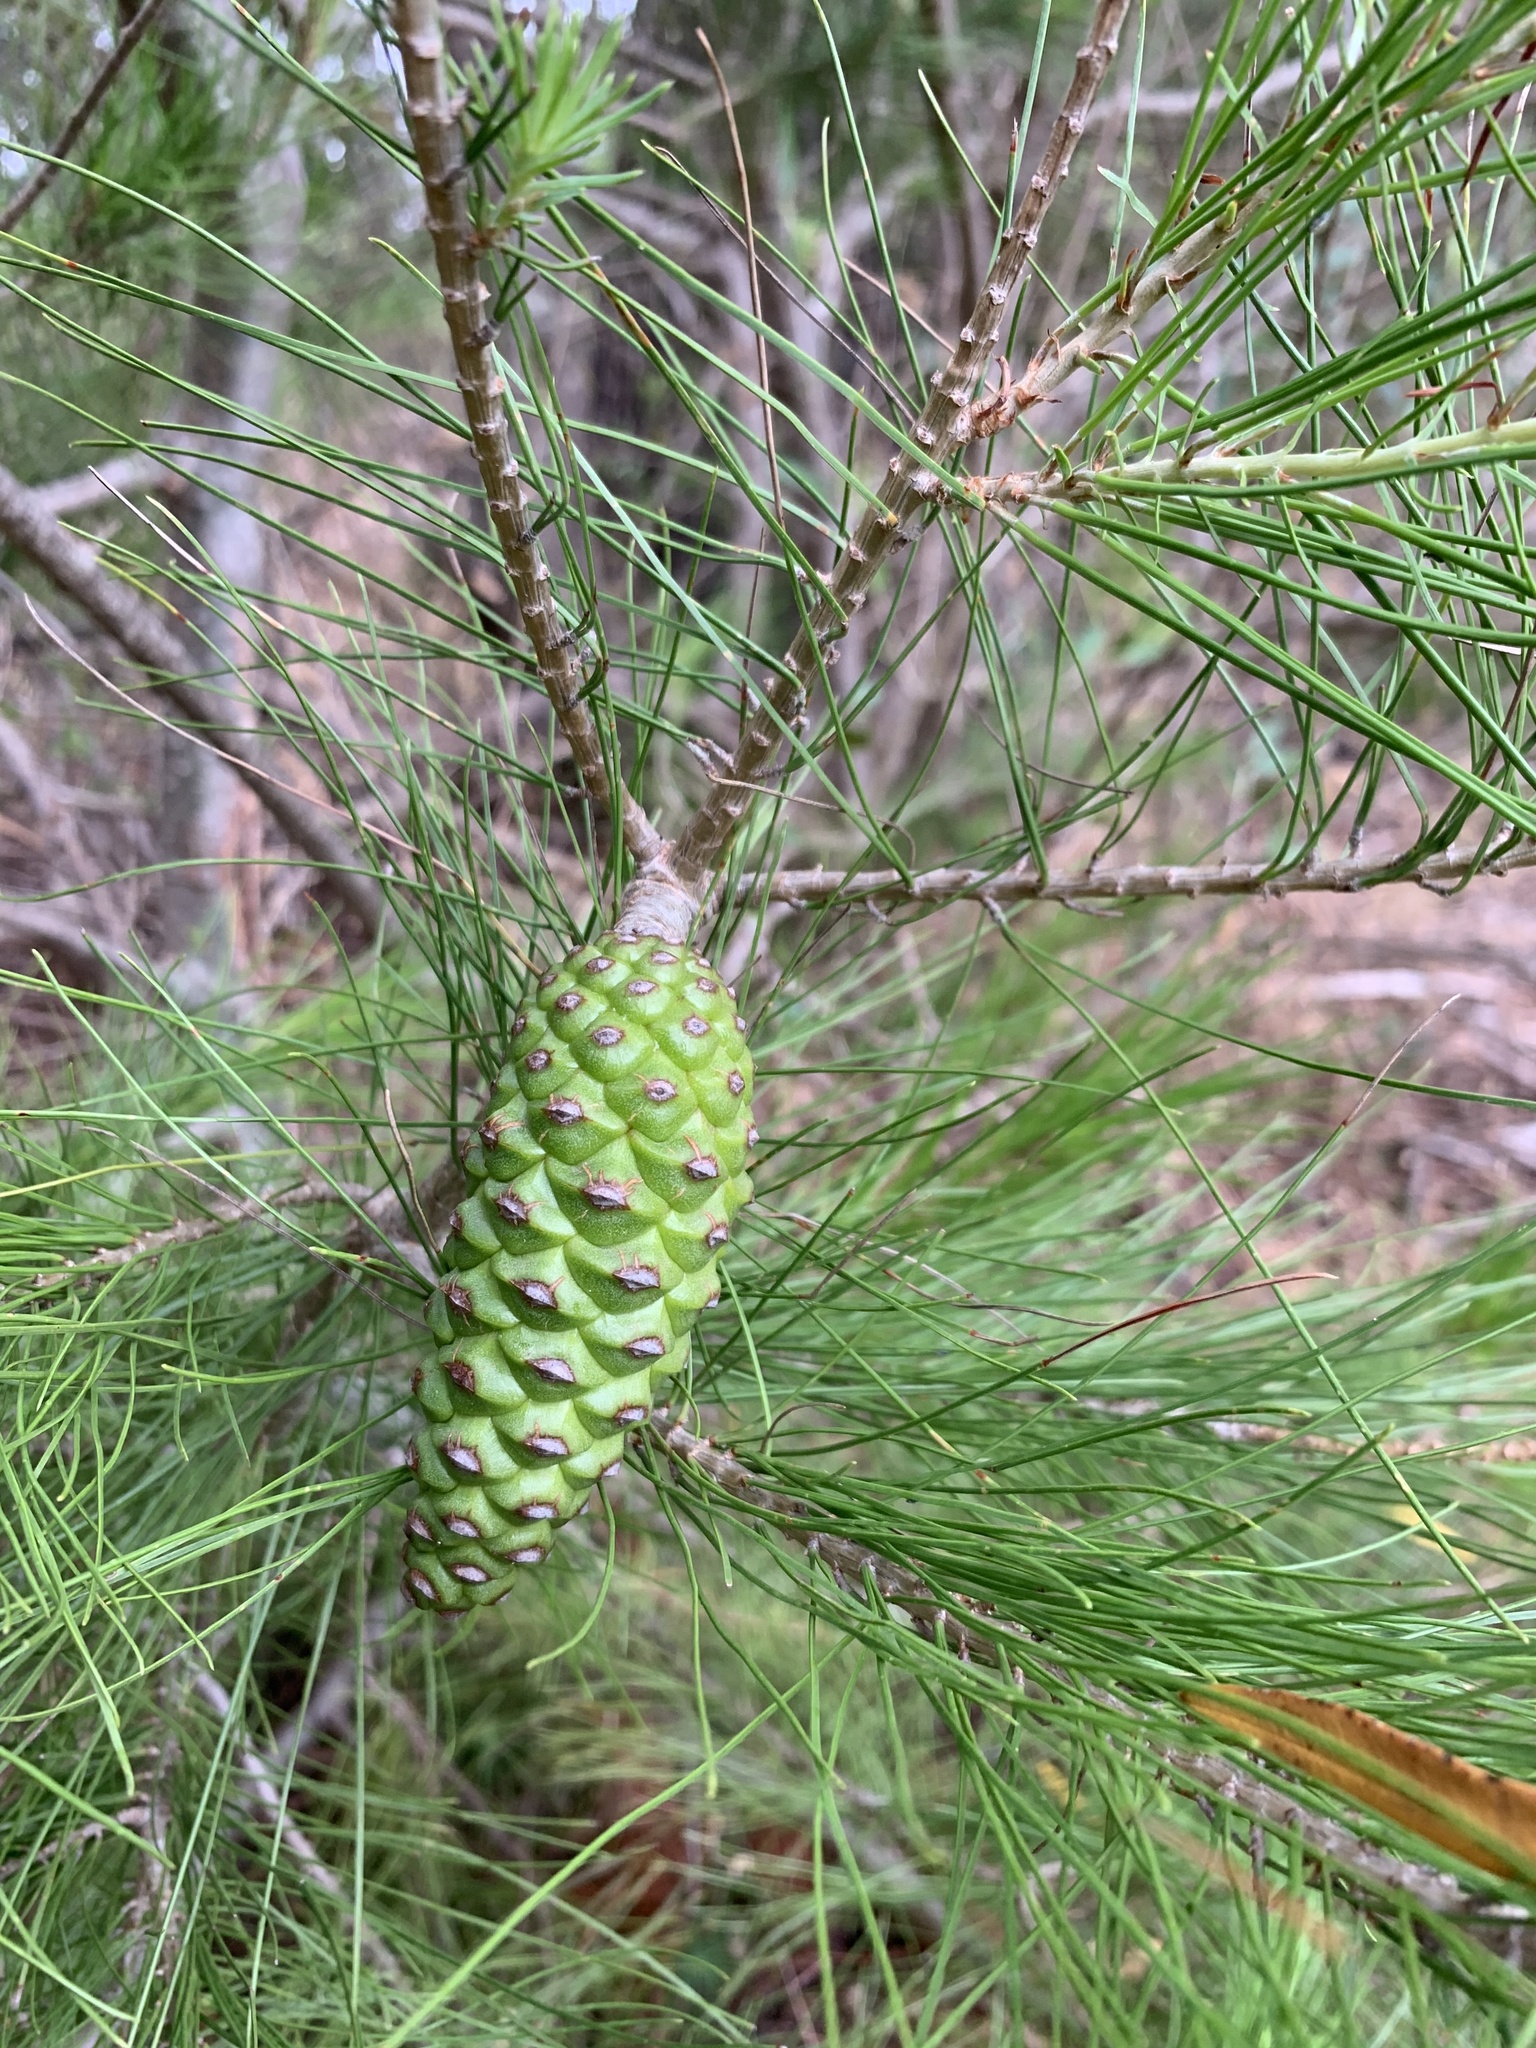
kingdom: Plantae
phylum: Tracheophyta
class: Pinopsida
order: Pinales
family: Pinaceae
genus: Pinus
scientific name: Pinus halepensis
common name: Aleppo pine
